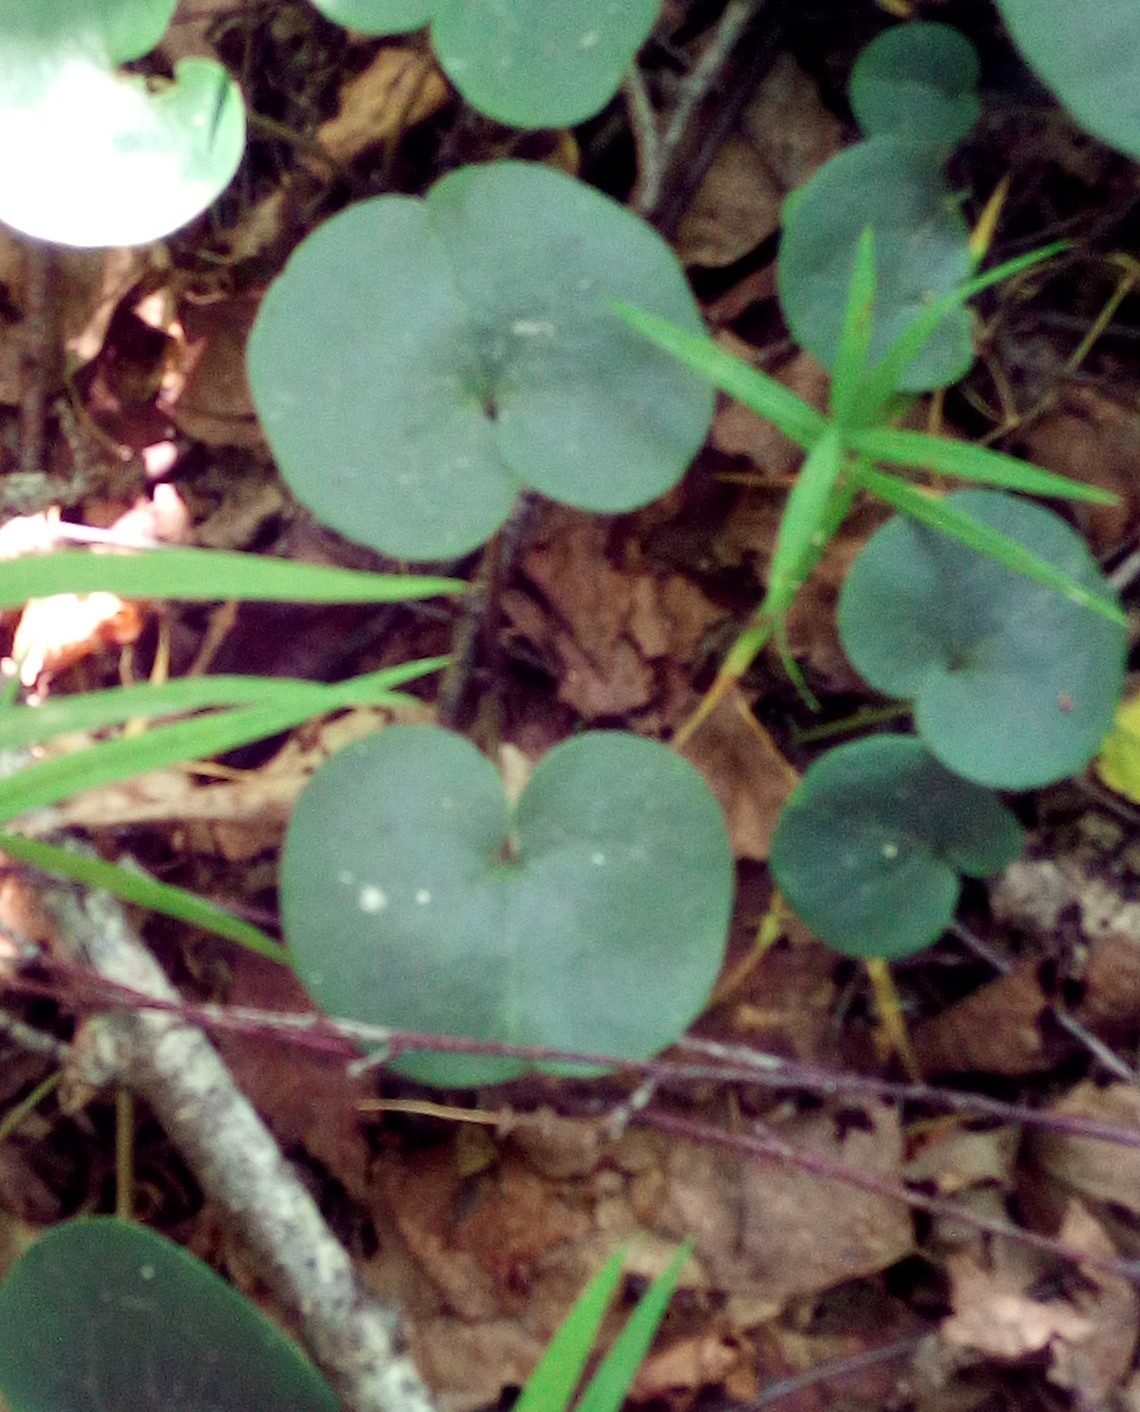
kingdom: Plantae
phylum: Tracheophyta
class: Magnoliopsida
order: Piperales
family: Aristolochiaceae
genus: Asarum
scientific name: Asarum europaeum
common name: Asarabacca
